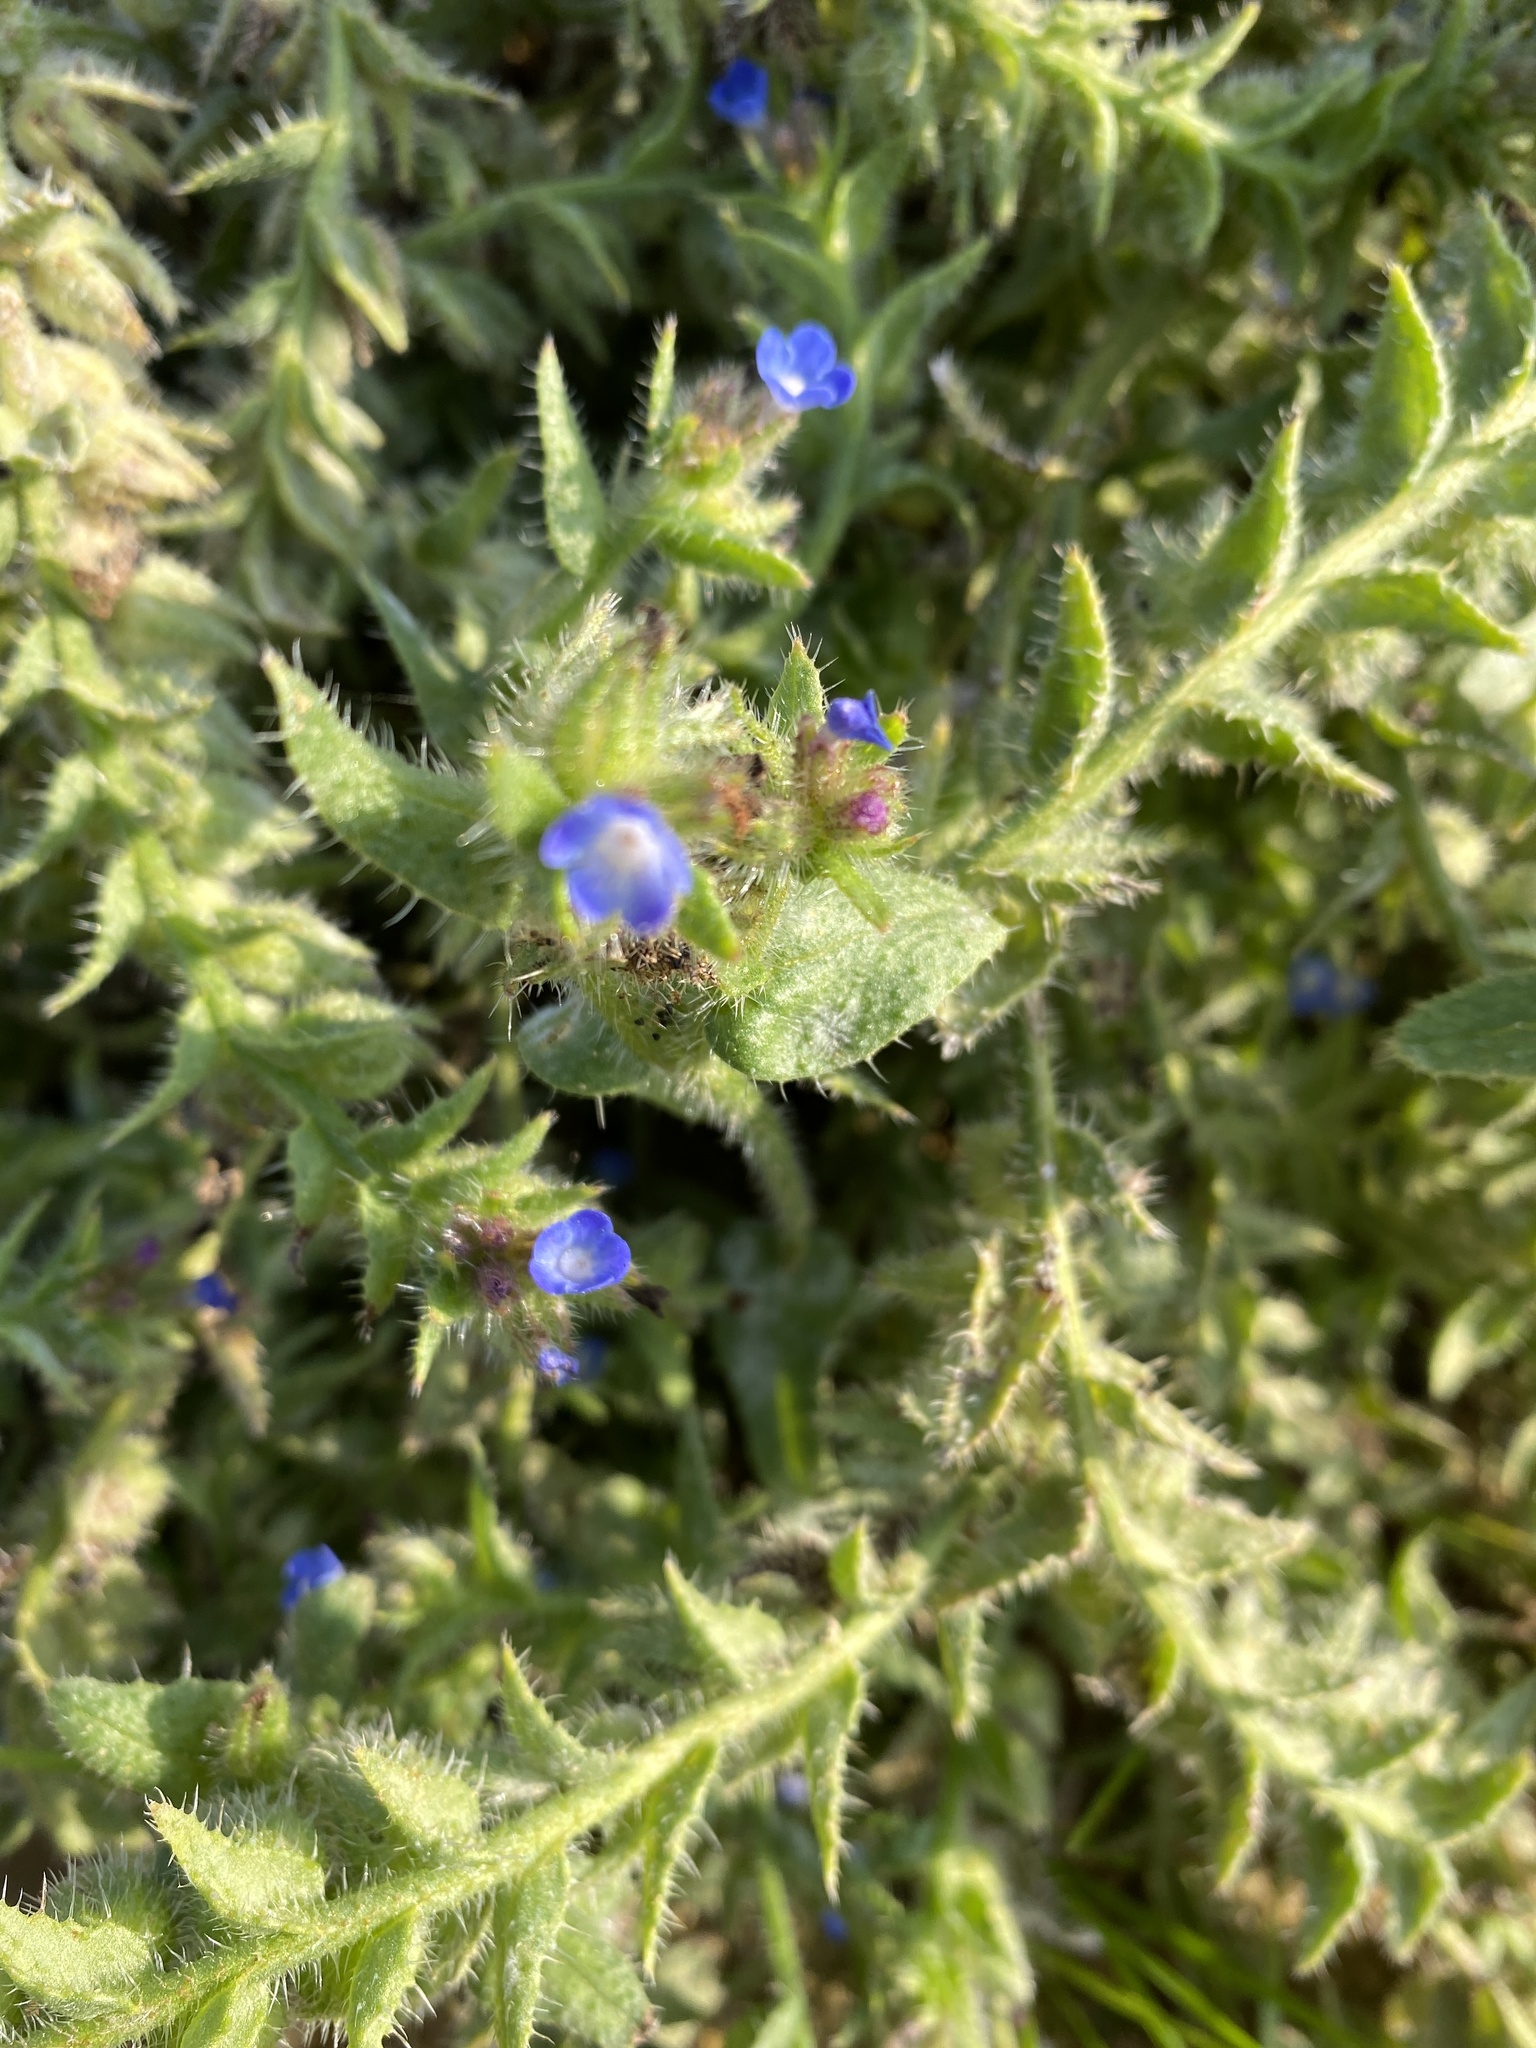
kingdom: Plantae
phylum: Tracheophyta
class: Magnoliopsida
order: Boraginales
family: Boraginaceae
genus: Lycopsis
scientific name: Lycopsis arvensis
